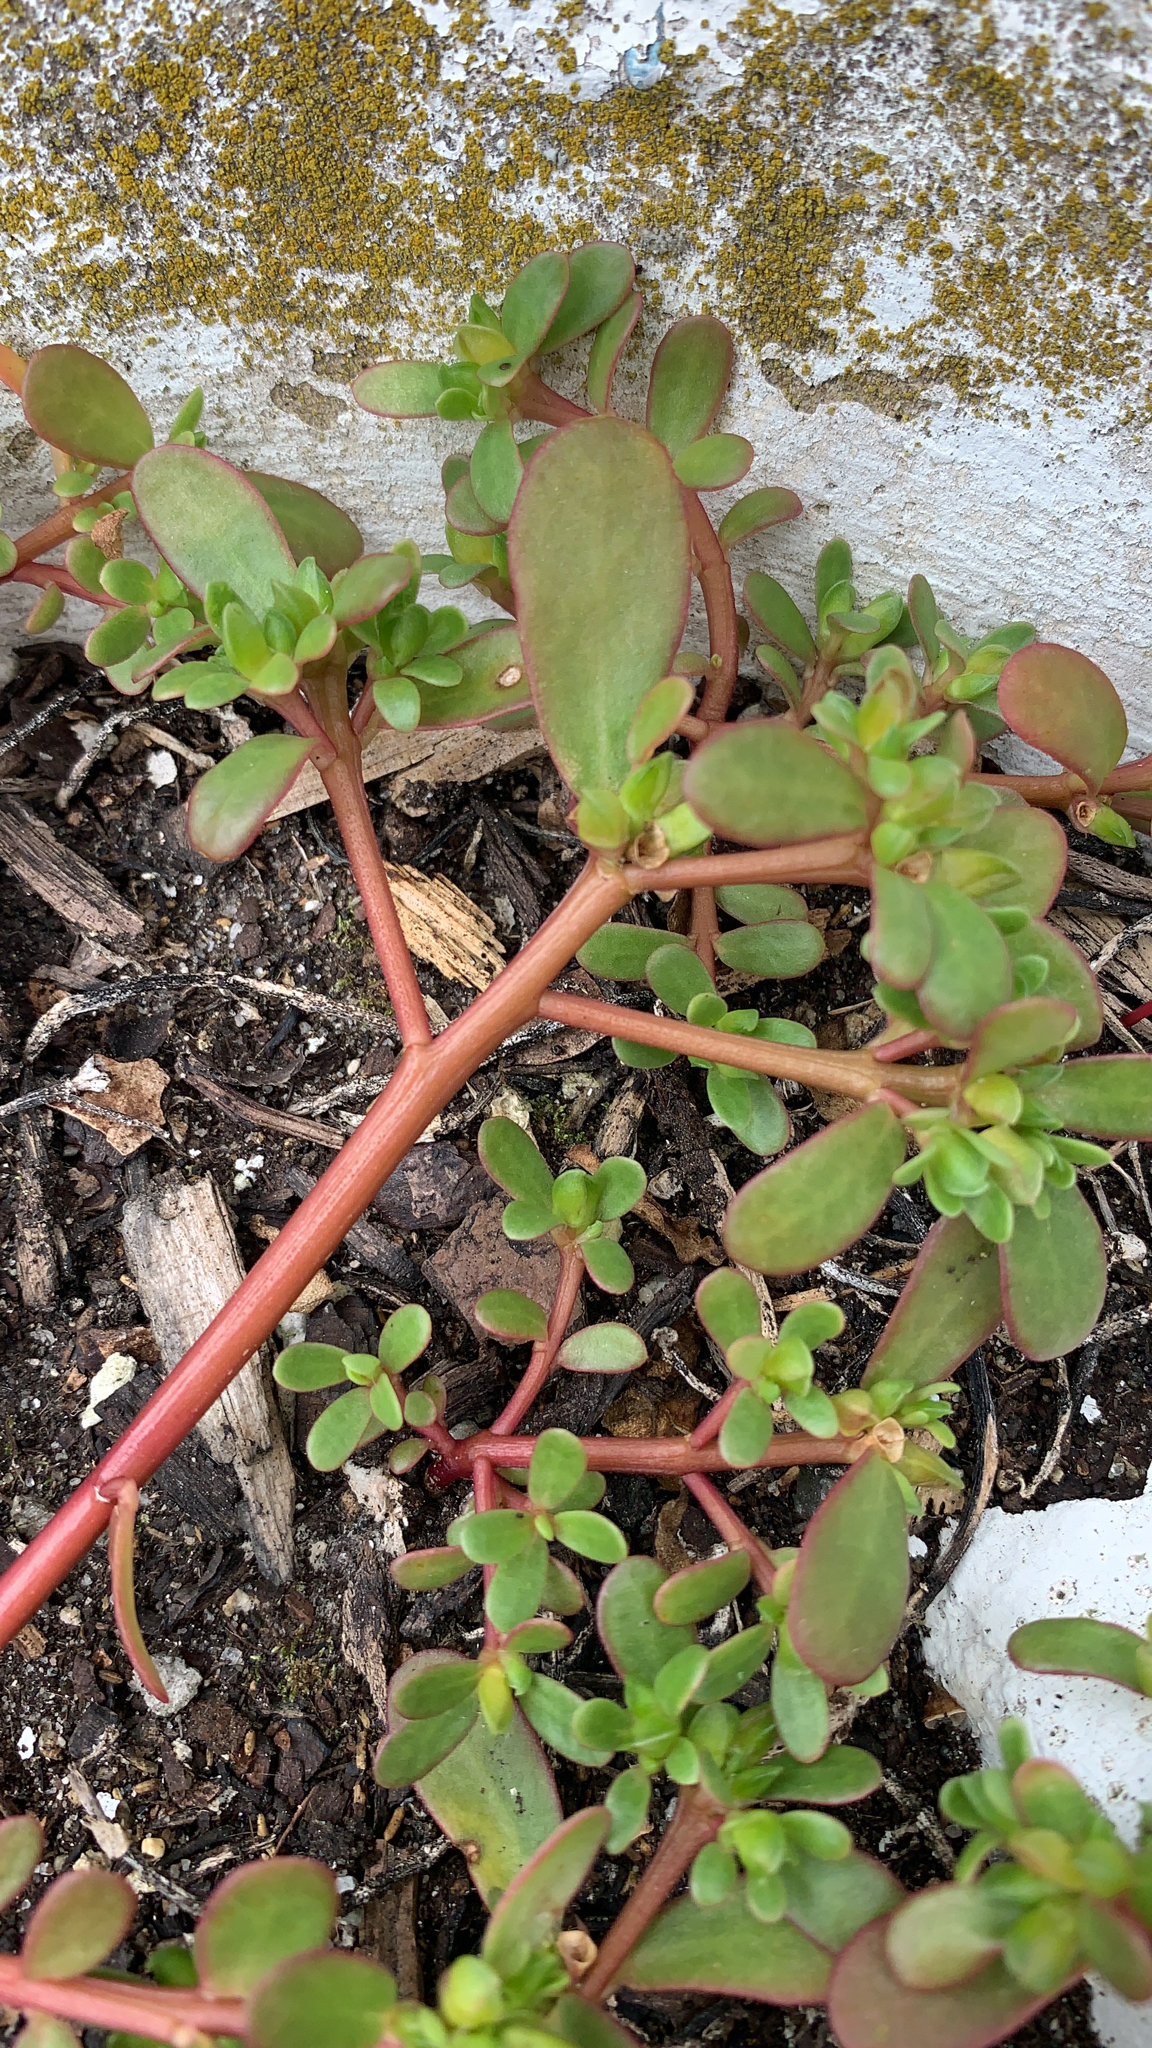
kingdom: Plantae
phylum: Tracheophyta
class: Magnoliopsida
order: Caryophyllales
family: Portulacaceae
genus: Portulaca
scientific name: Portulaca oleracea
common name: Common purslane
